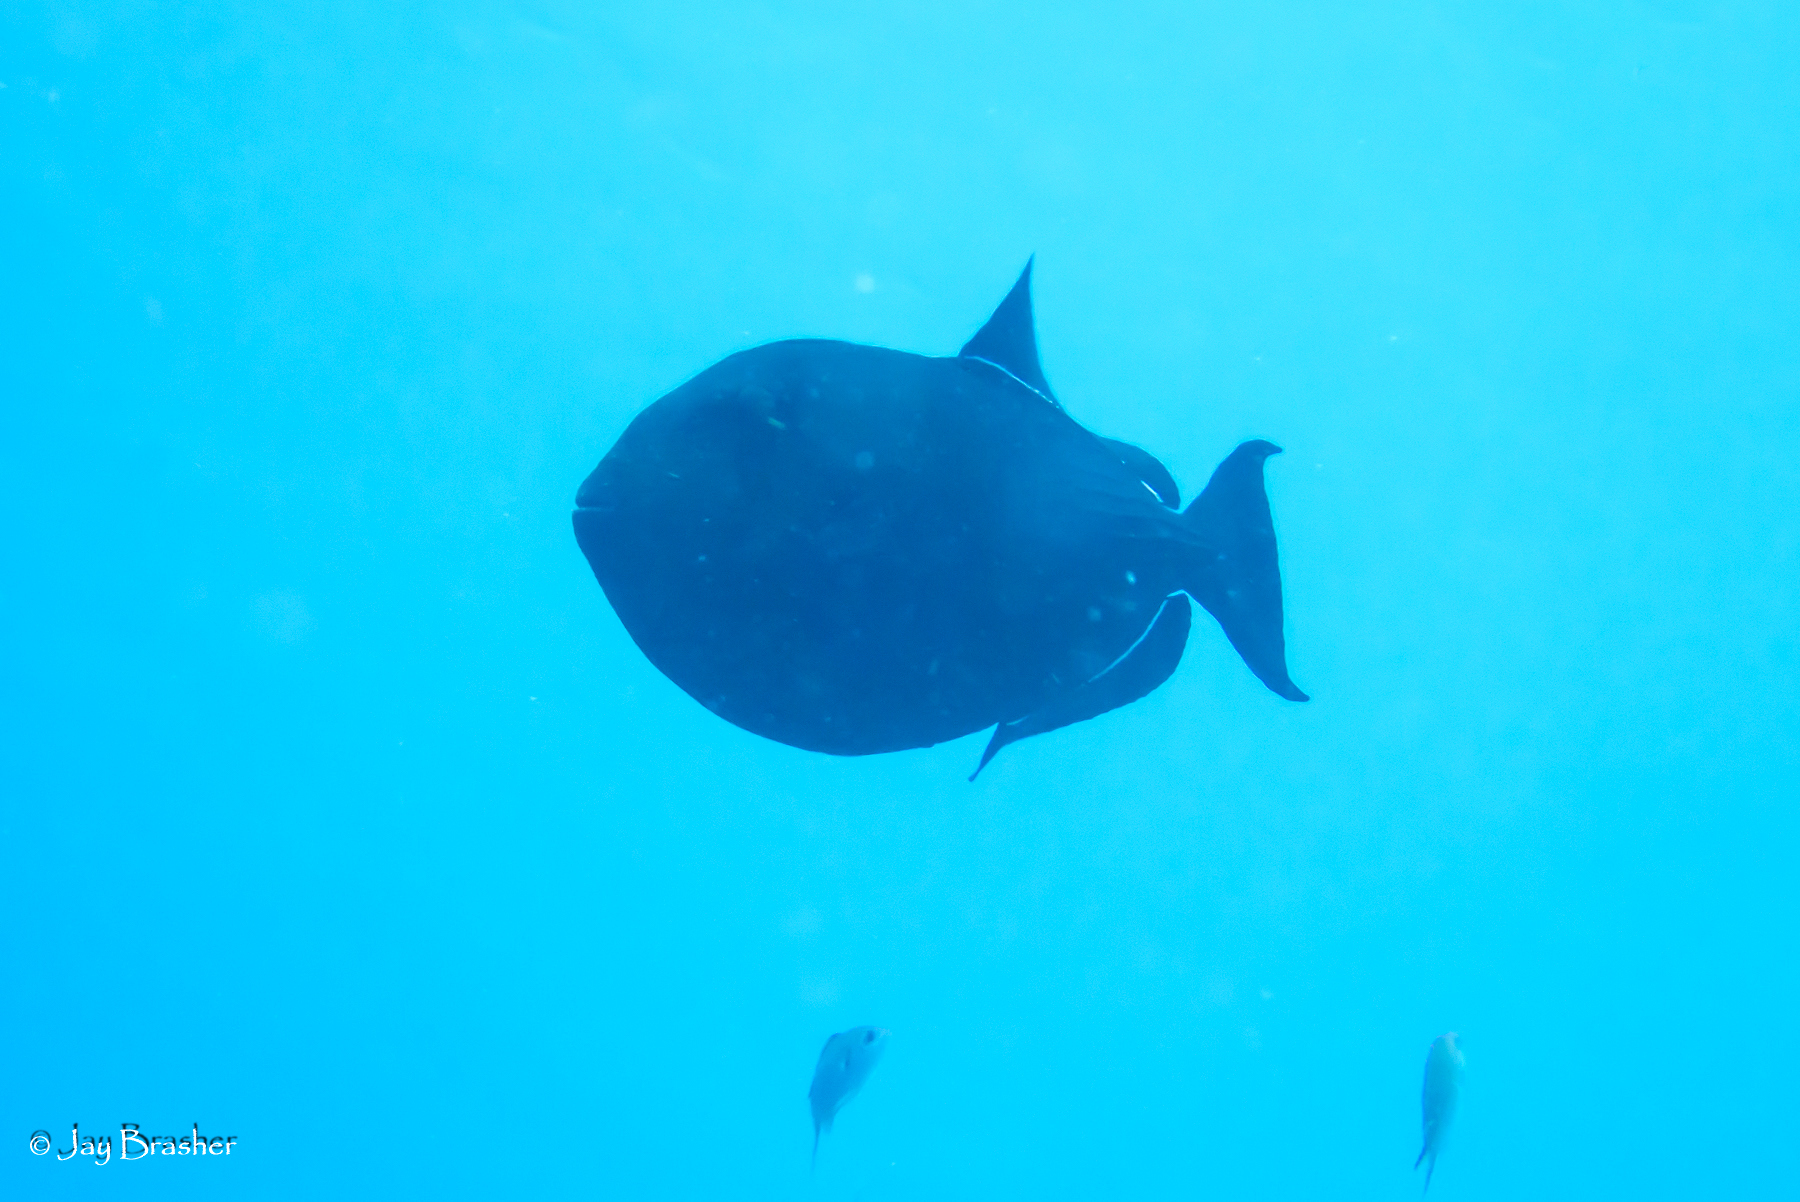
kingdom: Animalia
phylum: Chordata
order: Tetraodontiformes
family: Balistidae
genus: Melichthys
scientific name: Melichthys niger
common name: Black durgon
